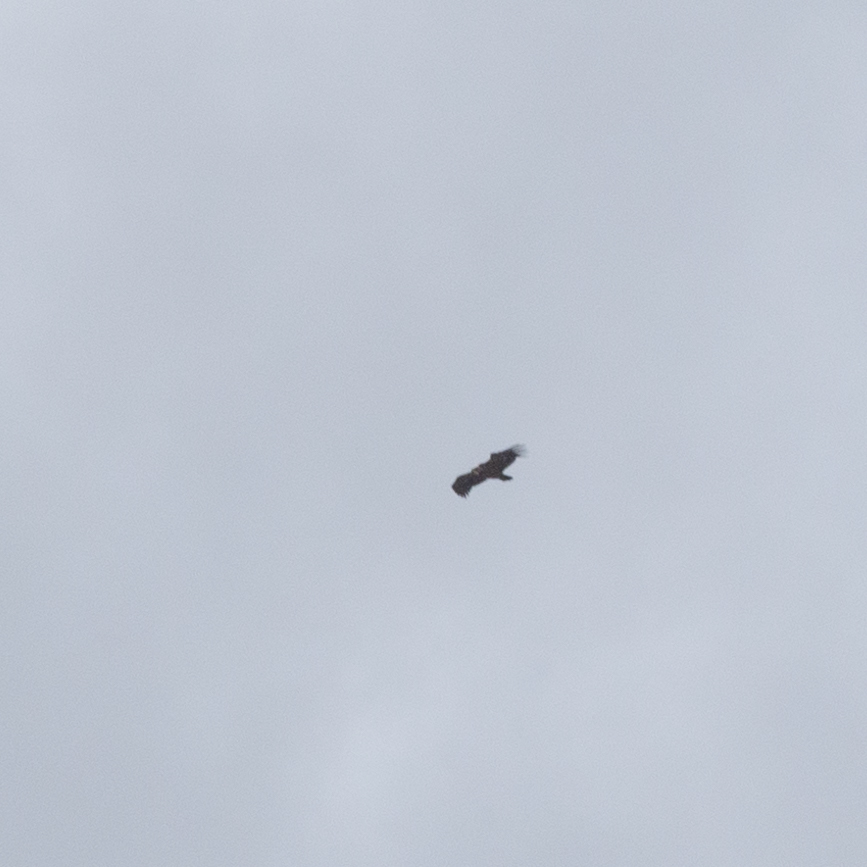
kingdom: Animalia
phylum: Chordata
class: Aves
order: Accipitriformes
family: Accipitridae
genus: Gyps
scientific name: Gyps fulvus
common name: Griffon vulture
